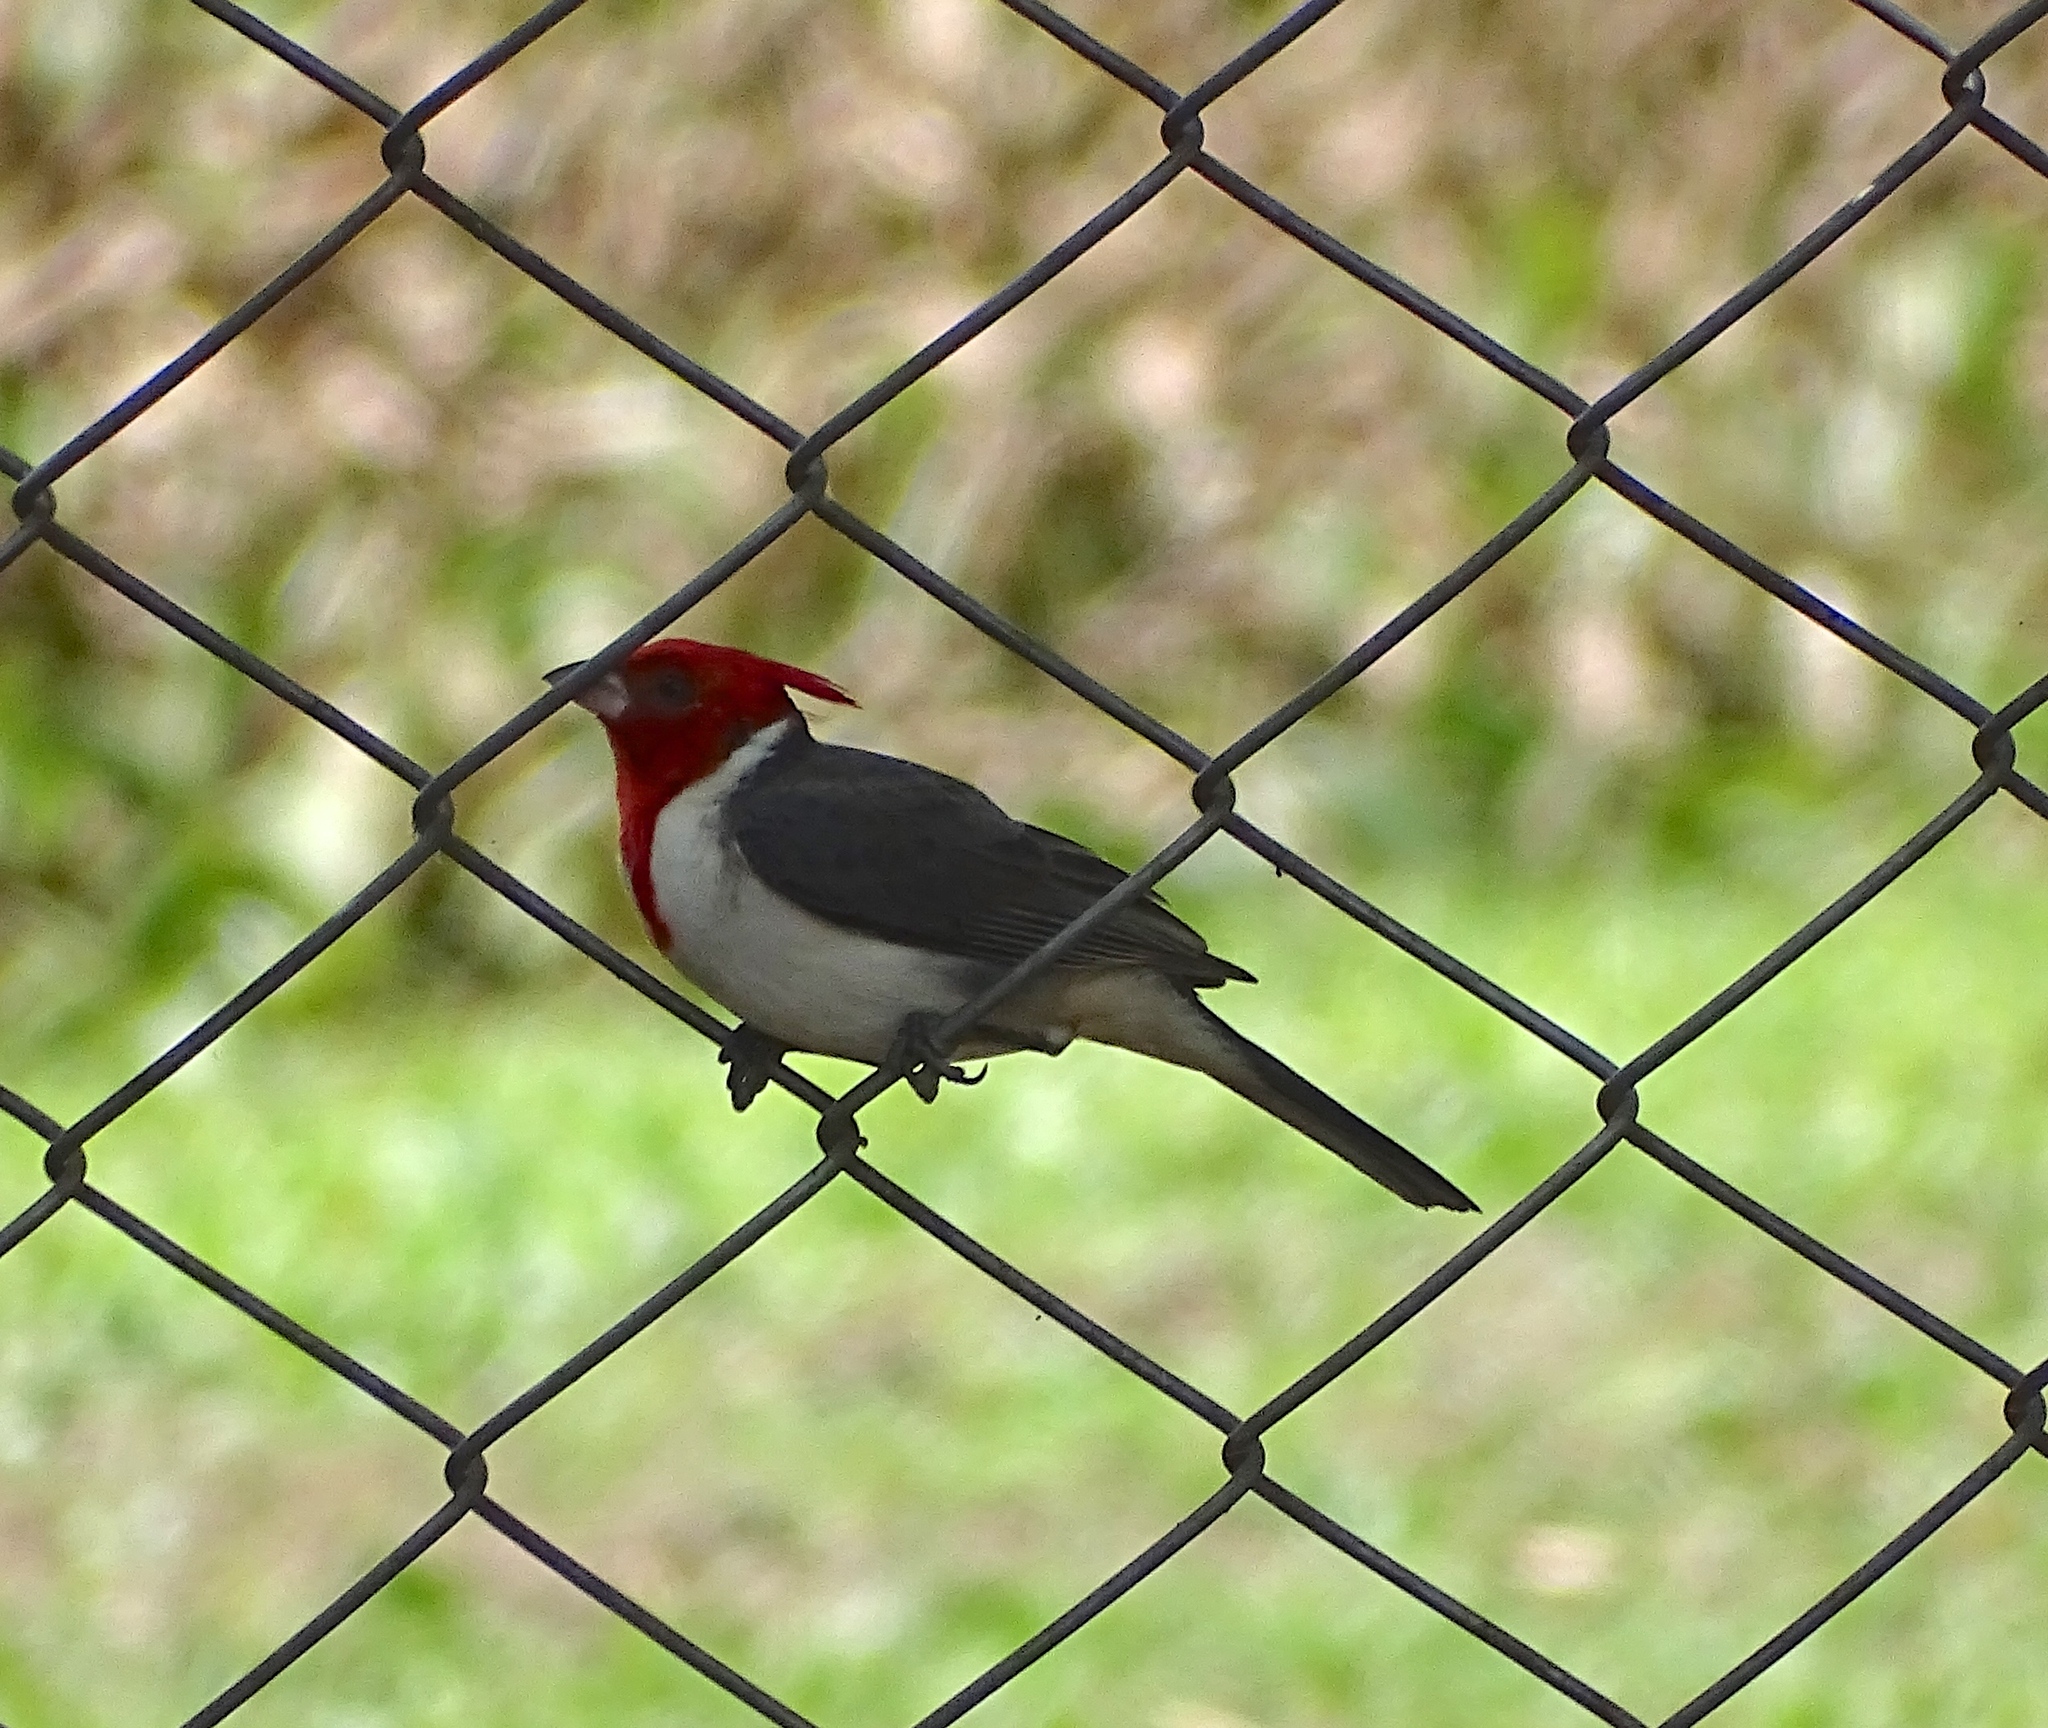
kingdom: Animalia
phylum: Chordata
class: Aves
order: Passeriformes
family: Thraupidae
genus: Paroaria
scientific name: Paroaria coronata
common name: Red-crested cardinal
